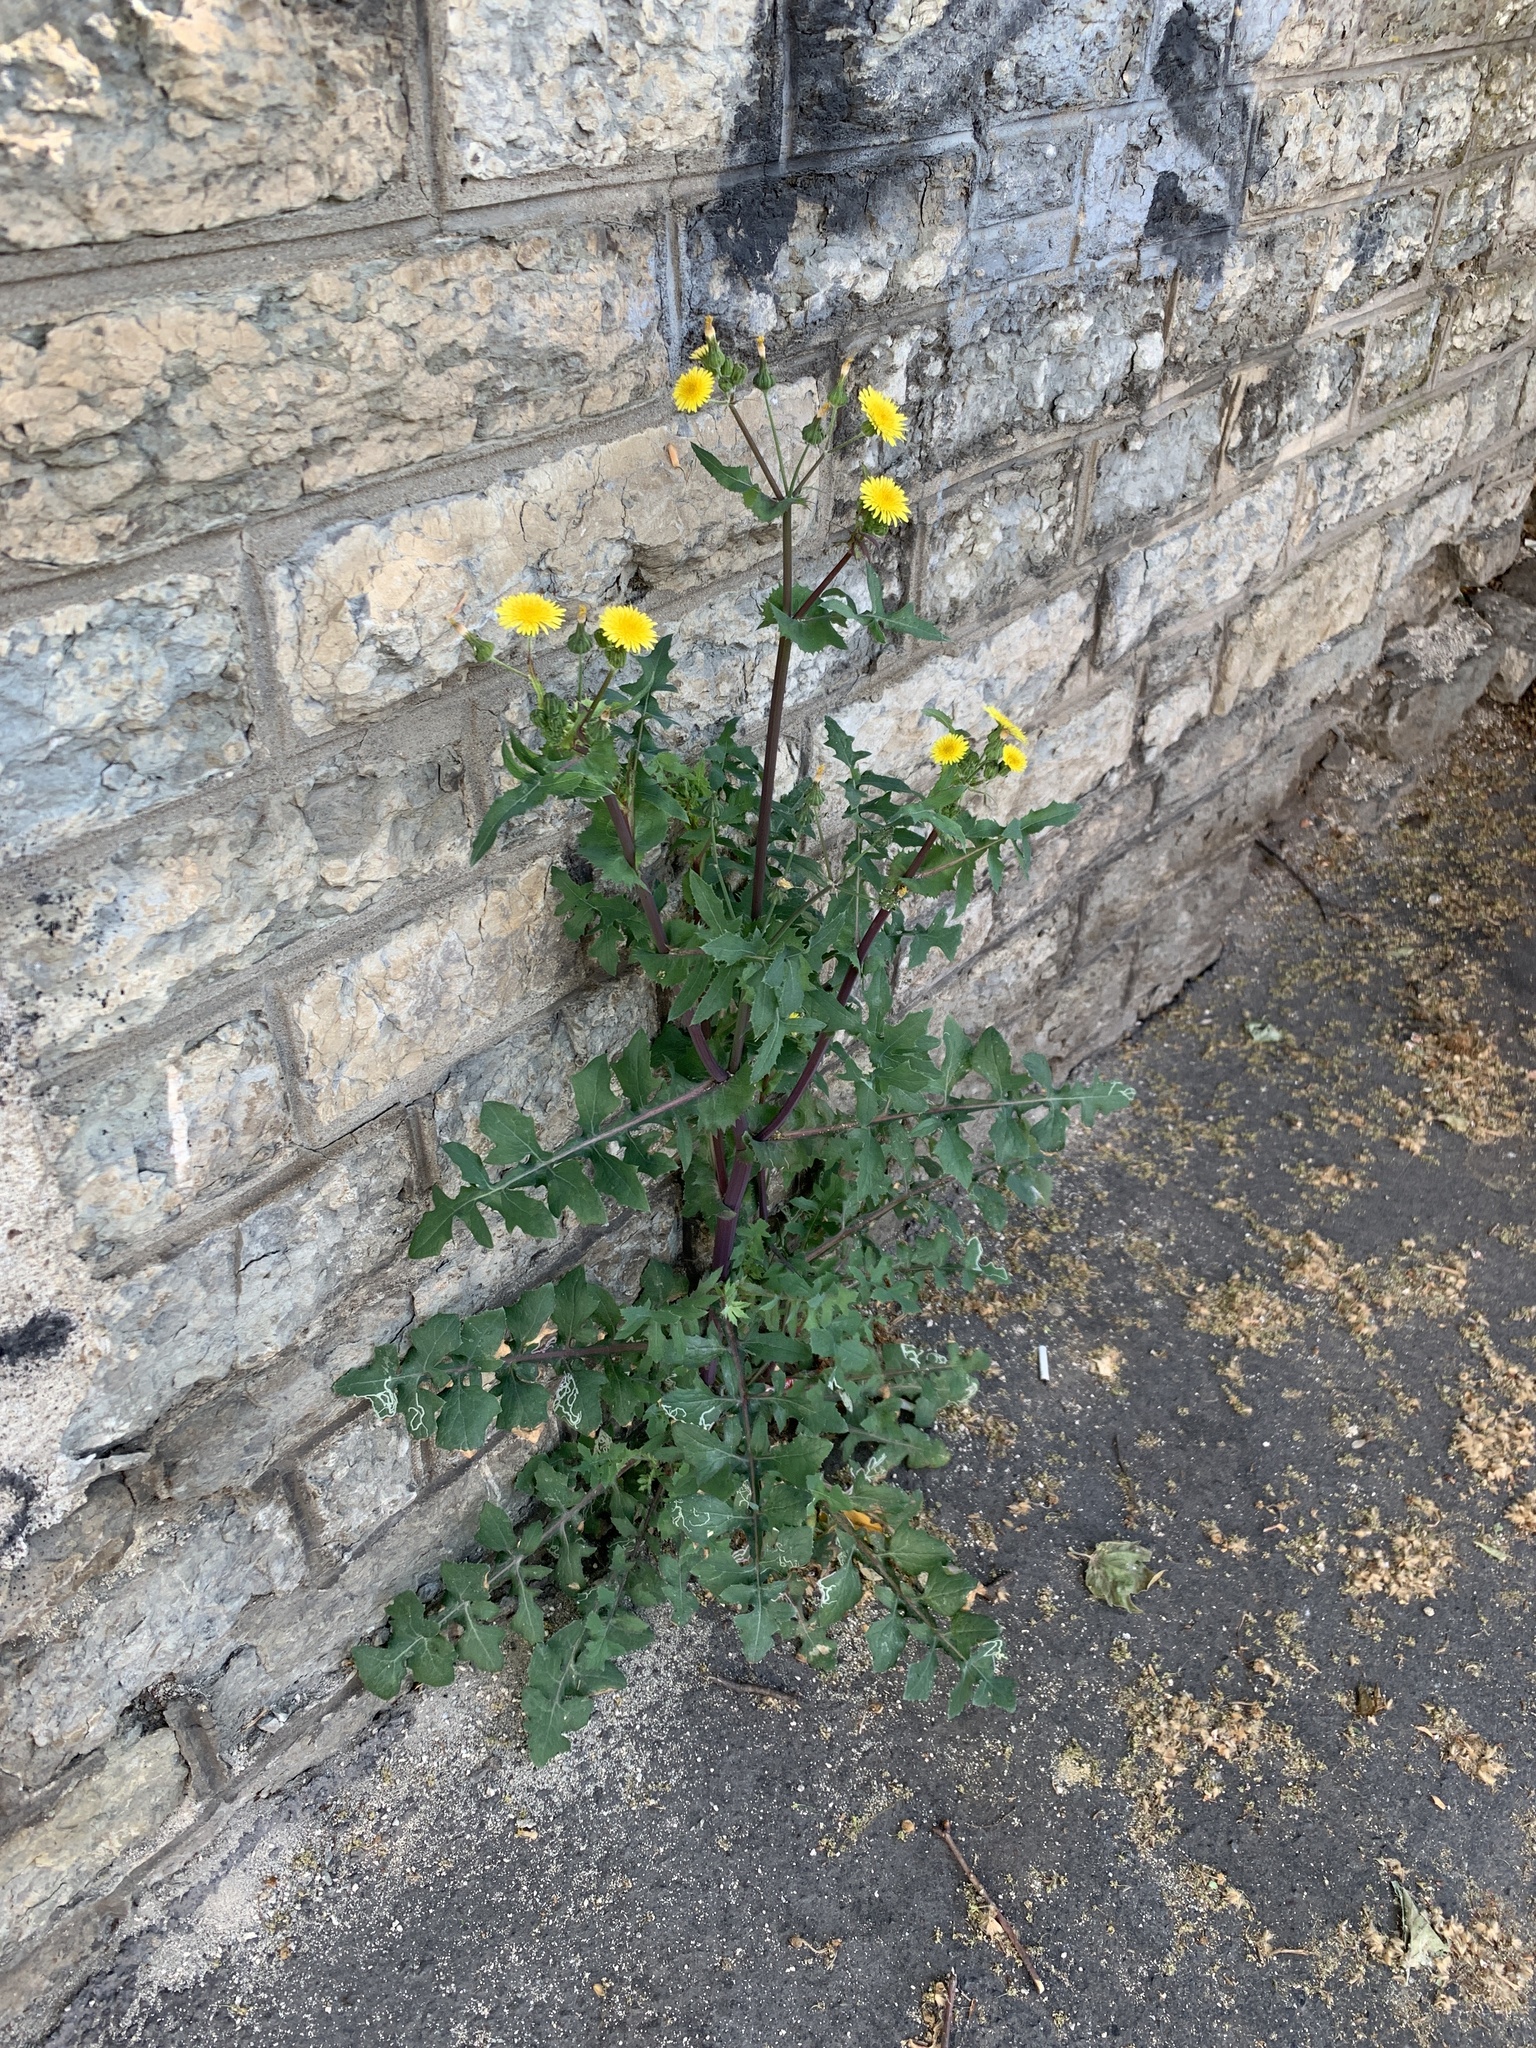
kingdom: Plantae
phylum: Tracheophyta
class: Magnoliopsida
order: Asterales
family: Asteraceae
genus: Sonchus
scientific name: Sonchus oleraceus
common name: Common sowthistle
